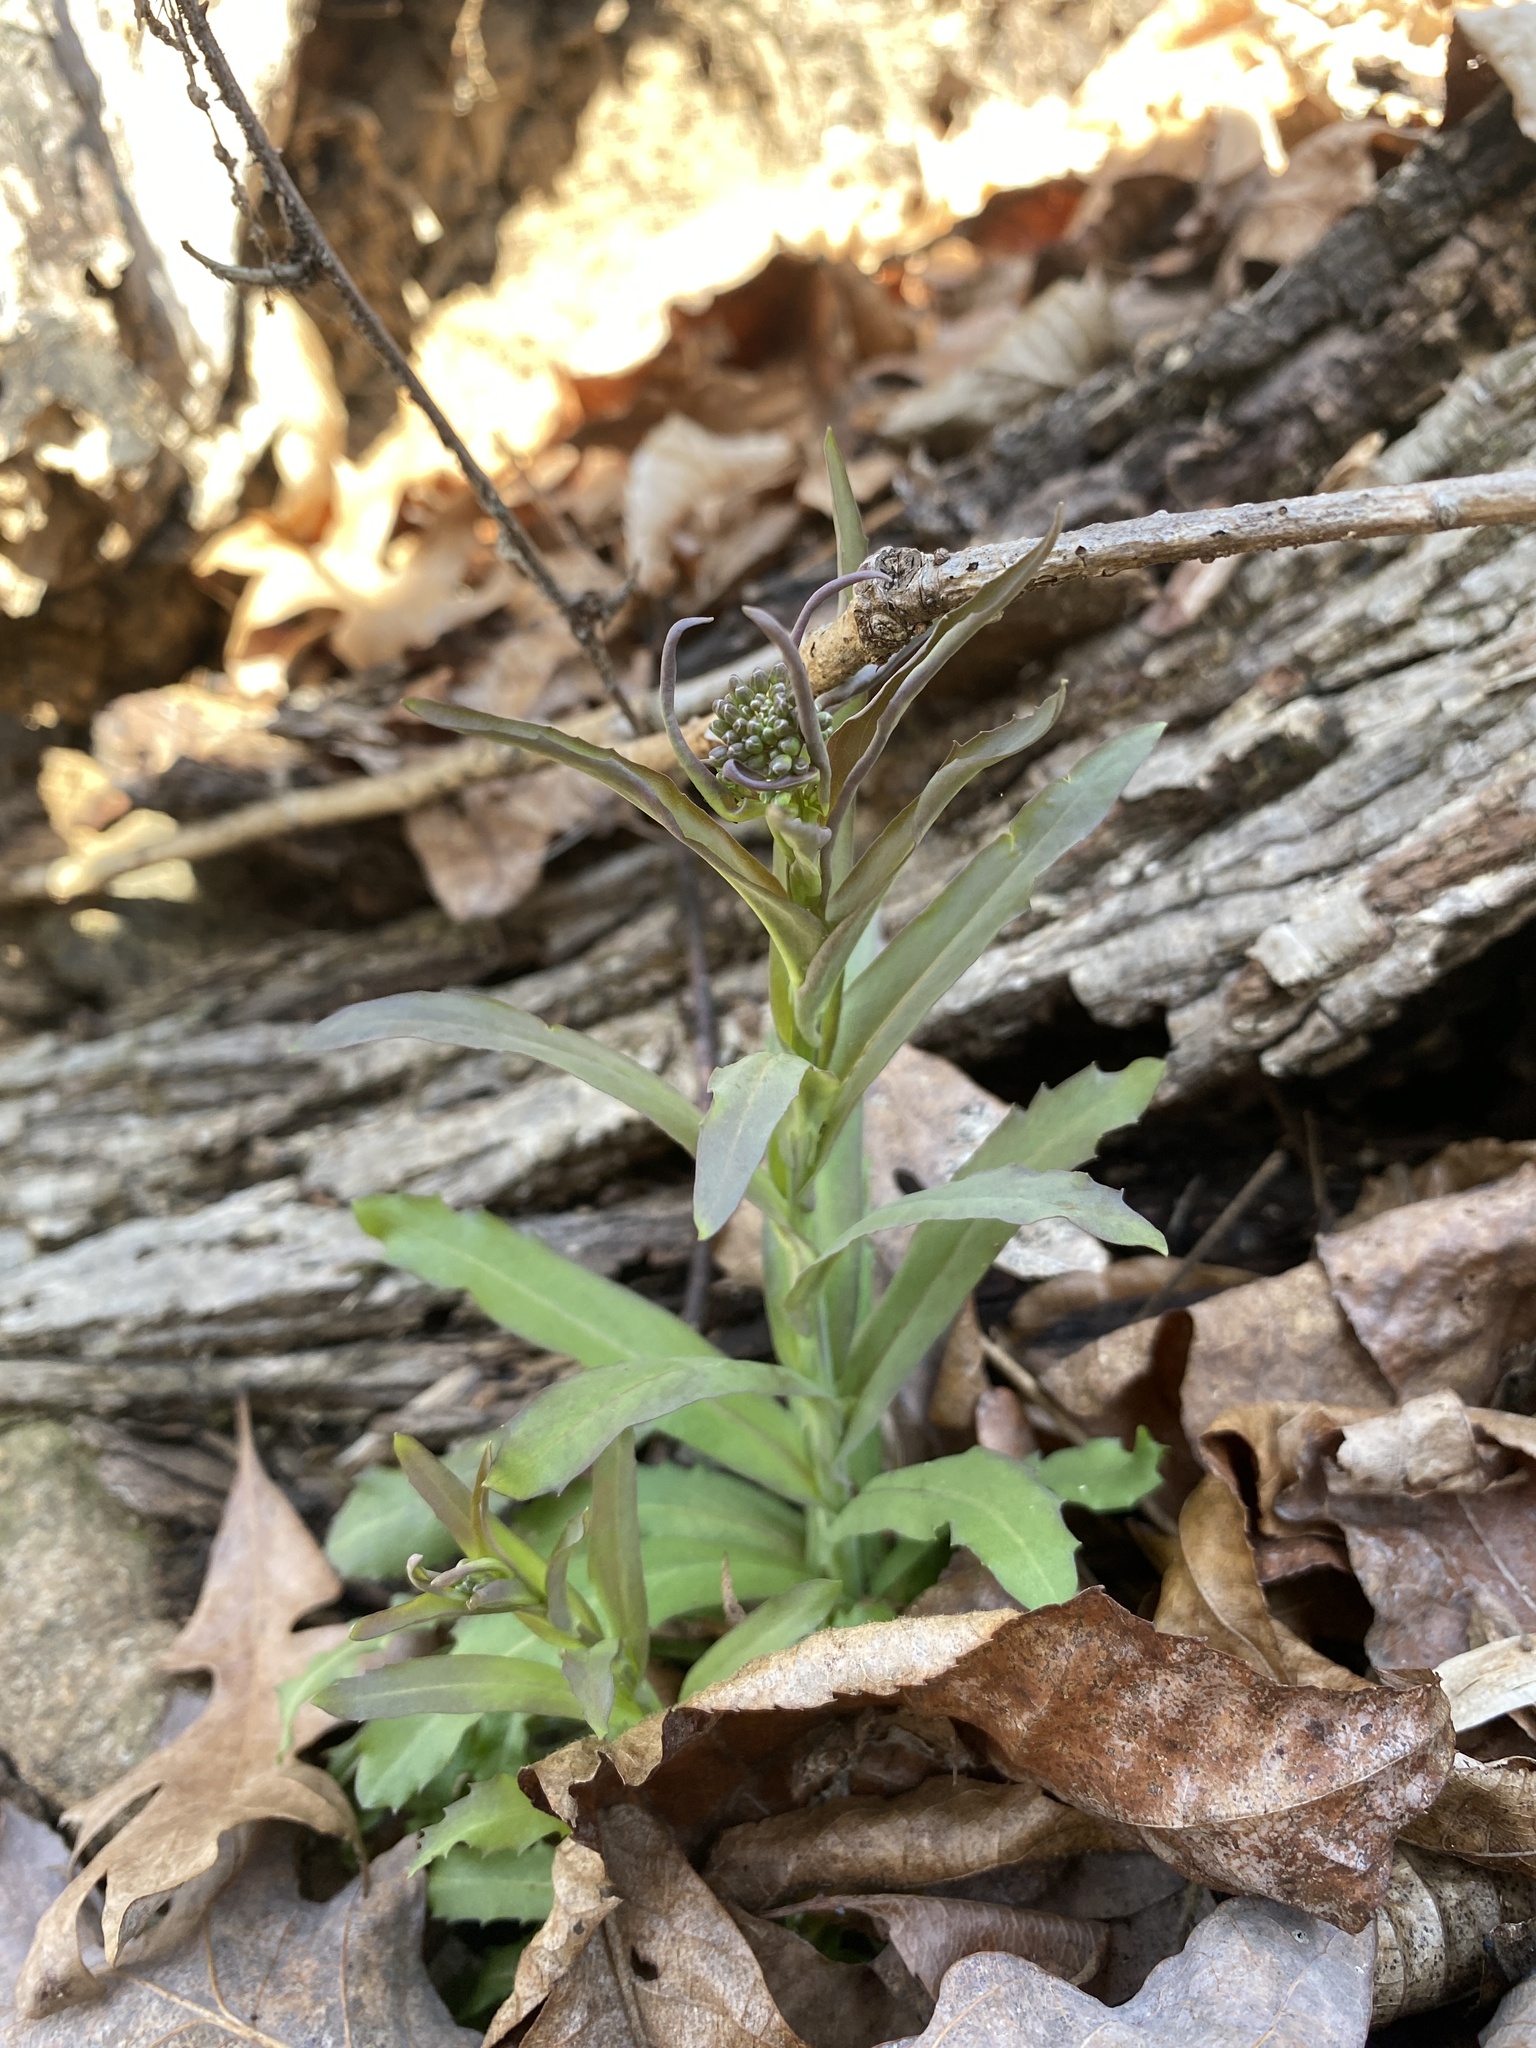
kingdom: Plantae
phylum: Tracheophyta
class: Magnoliopsida
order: Brassicales
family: Brassicaceae
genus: Borodinia
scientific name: Borodinia laevigata
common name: Smooth rockcress
